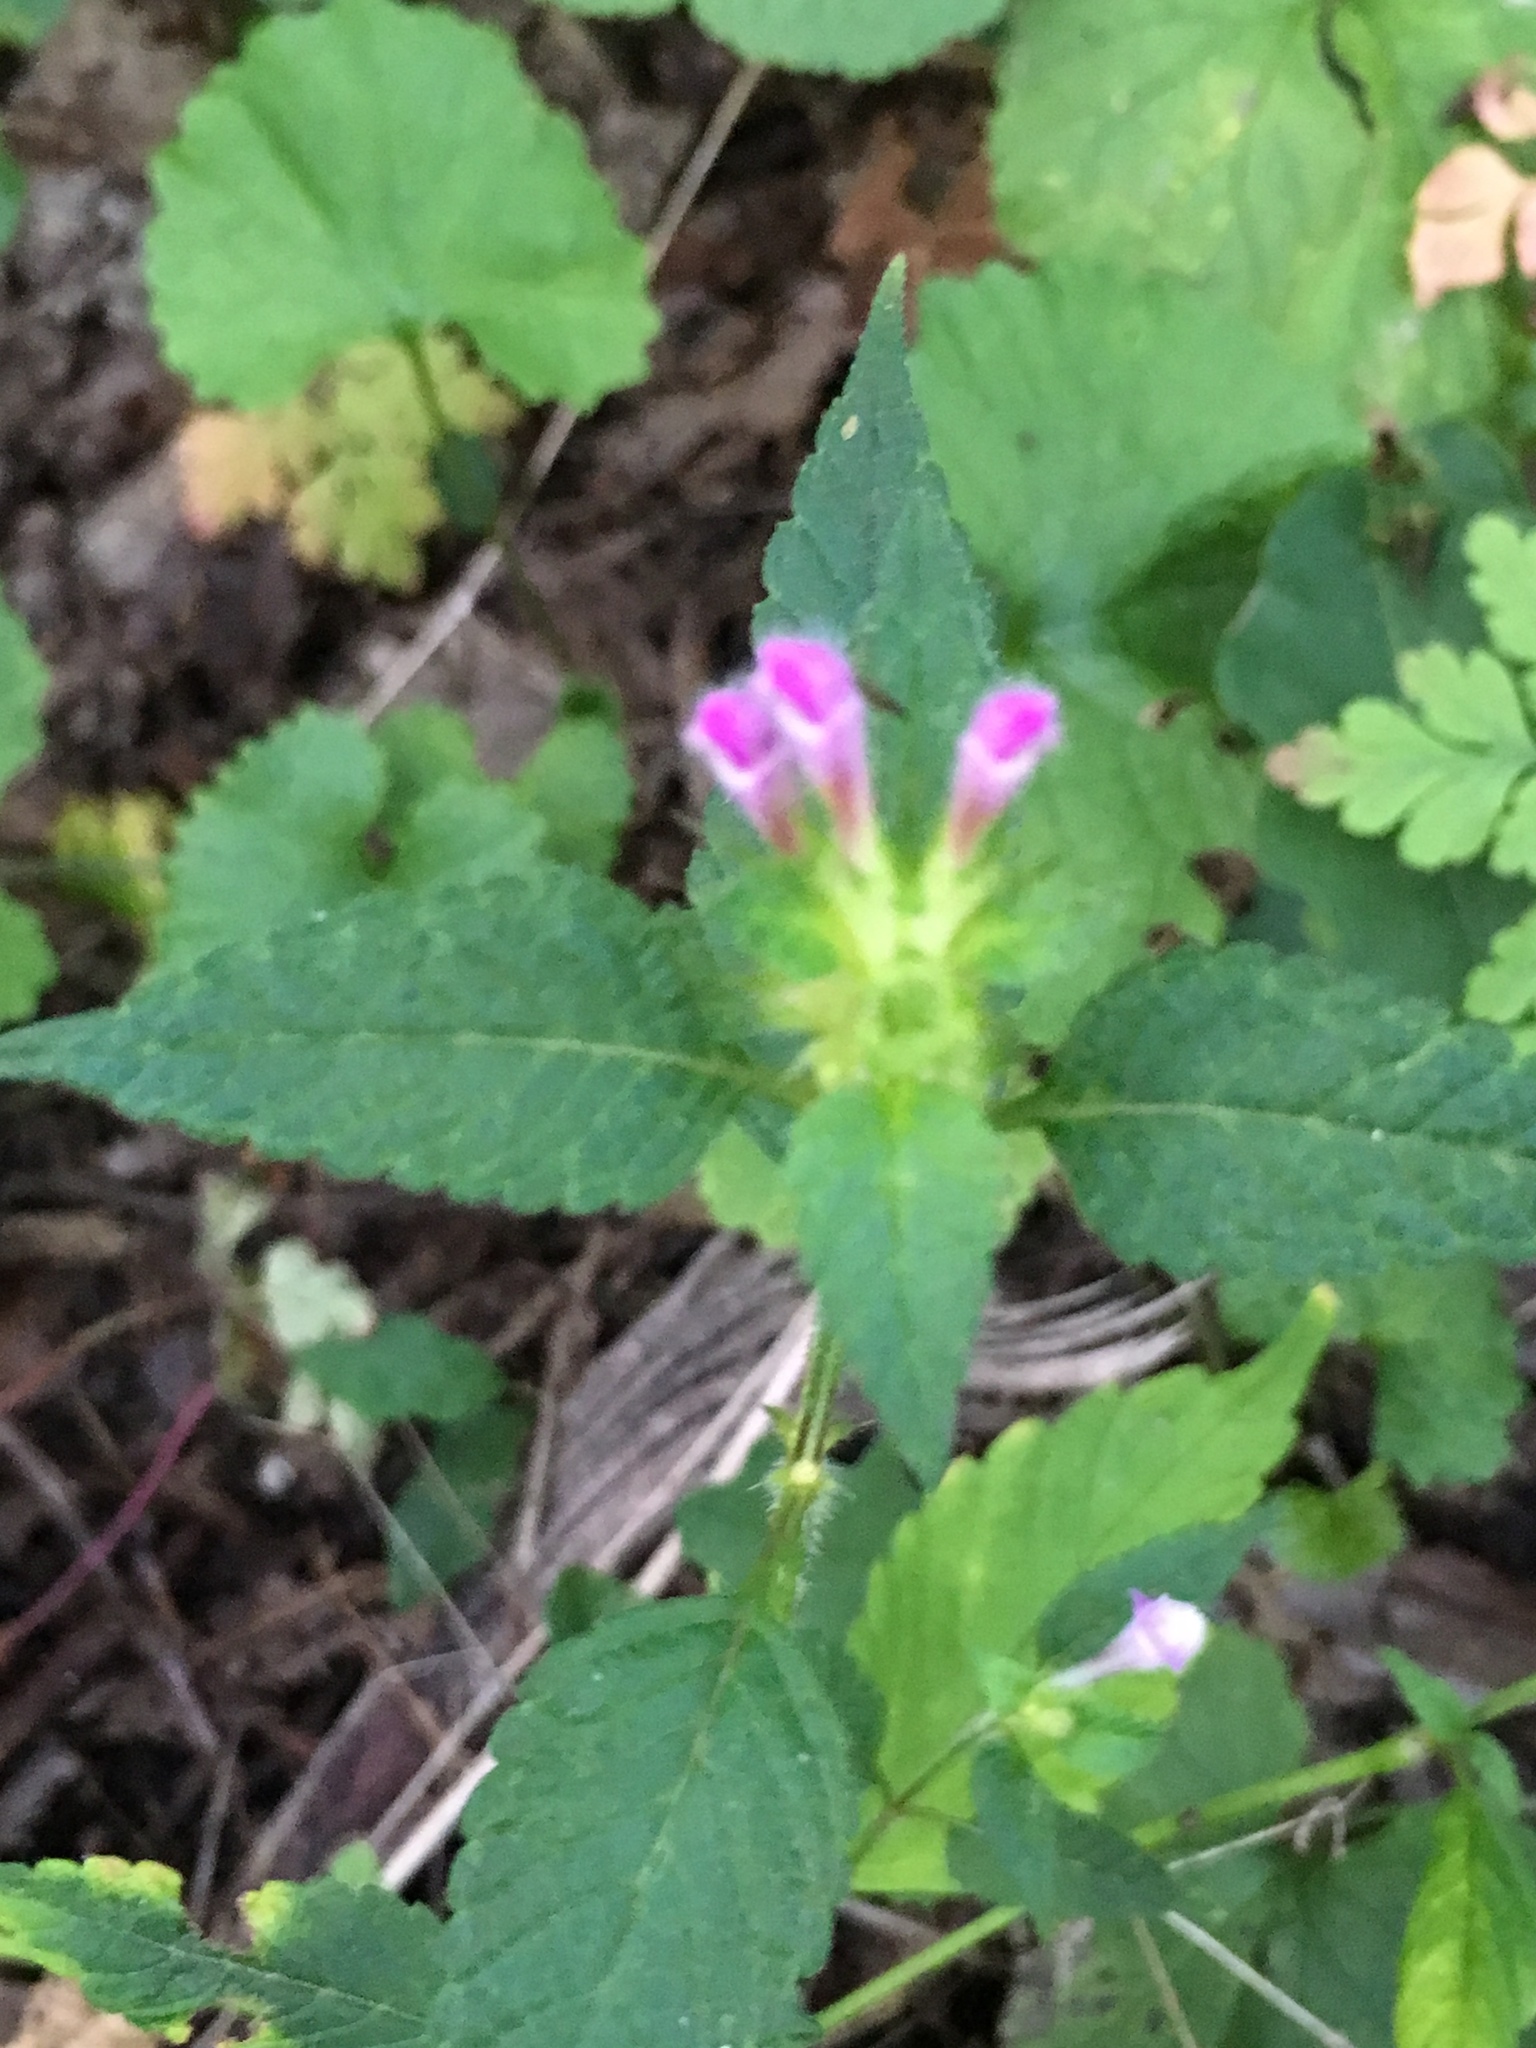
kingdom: Plantae
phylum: Tracheophyta
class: Magnoliopsida
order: Lamiales
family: Lamiaceae
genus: Galeopsis
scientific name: Galeopsis pubescens
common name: Downy hemp-nettle
